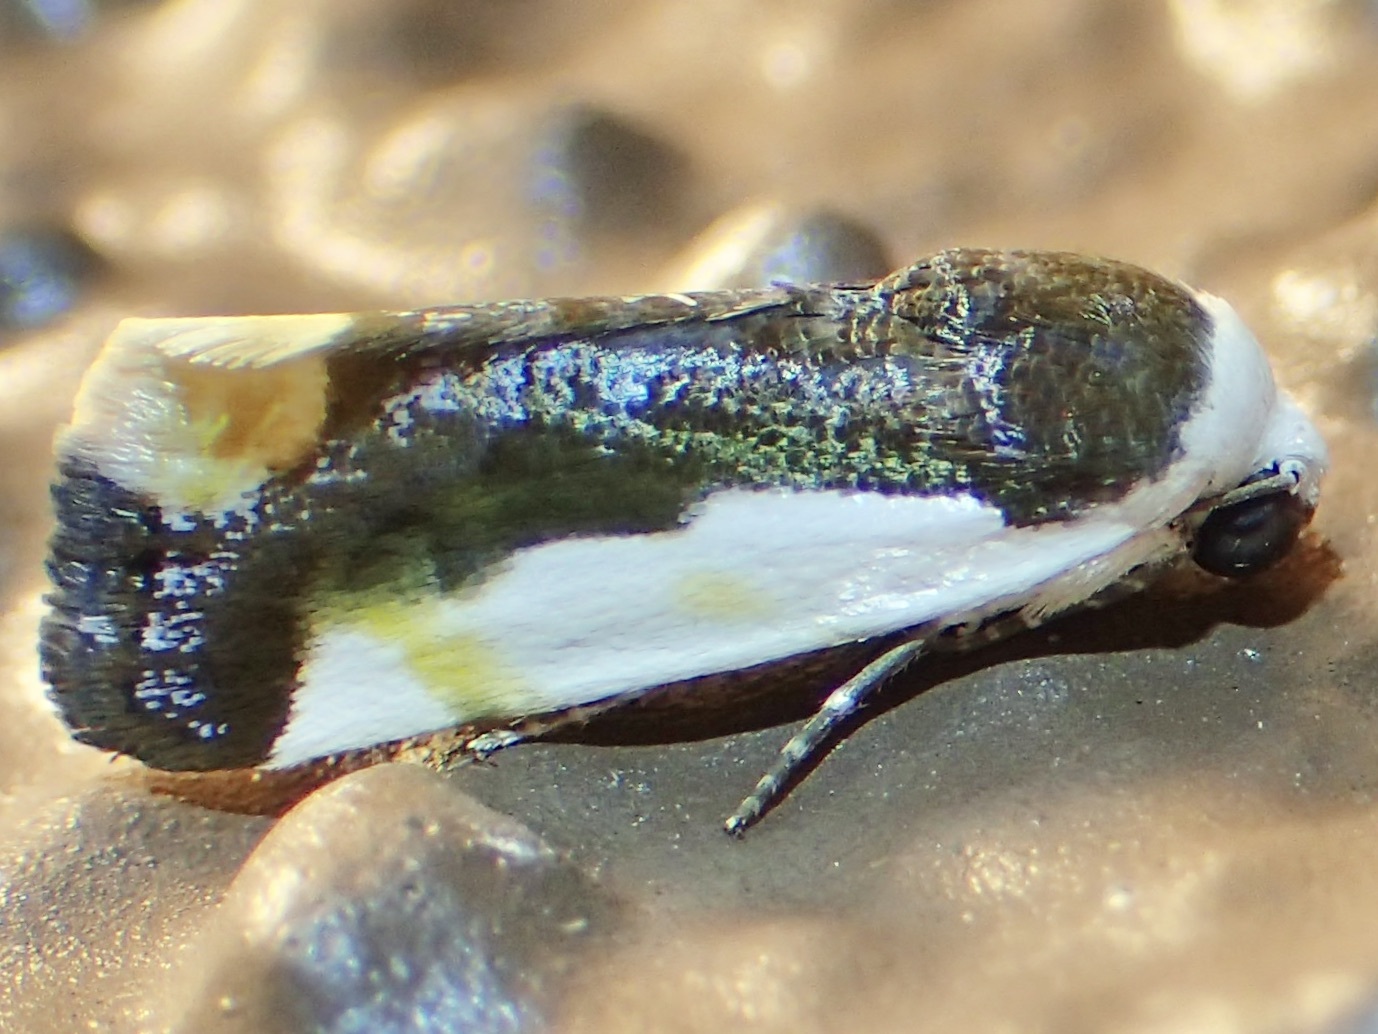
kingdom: Animalia
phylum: Arthropoda
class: Insecta
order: Lepidoptera
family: Noctuidae
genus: Acontia
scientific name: Acontia Tarache expolita
